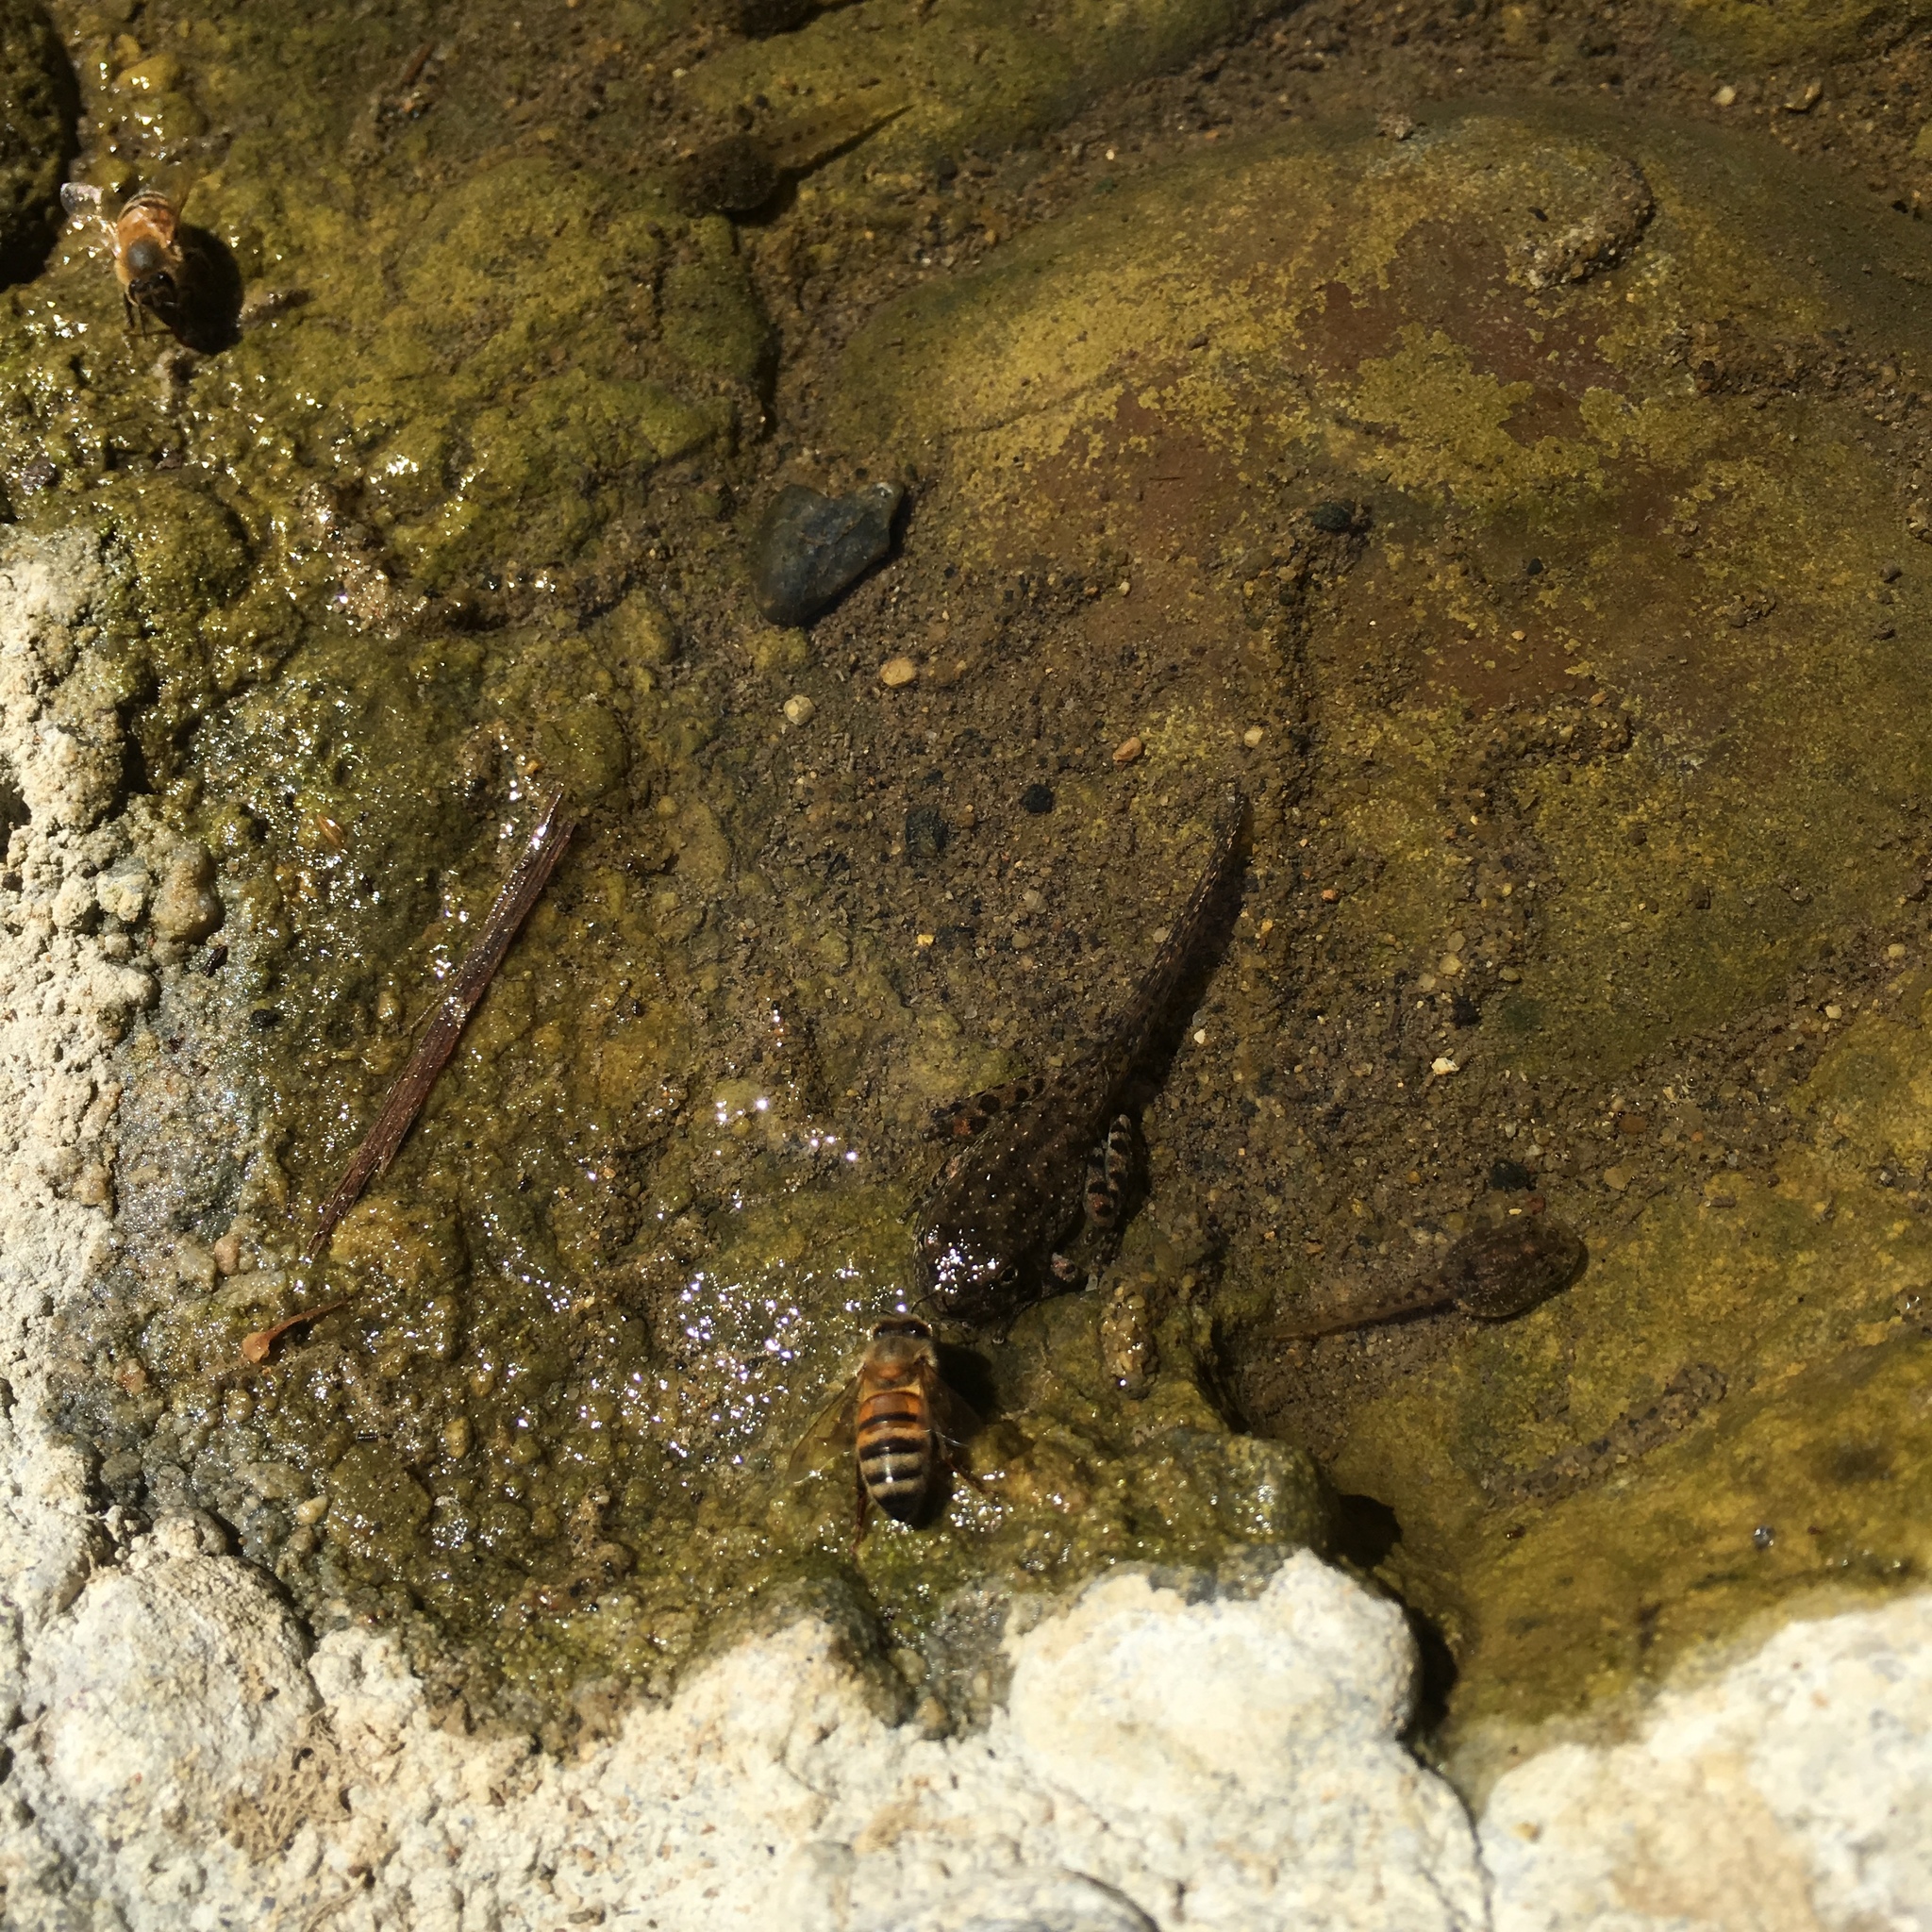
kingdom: Animalia
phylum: Arthropoda
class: Insecta
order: Hymenoptera
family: Apidae
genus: Apis
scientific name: Apis mellifera
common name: Honey bee
